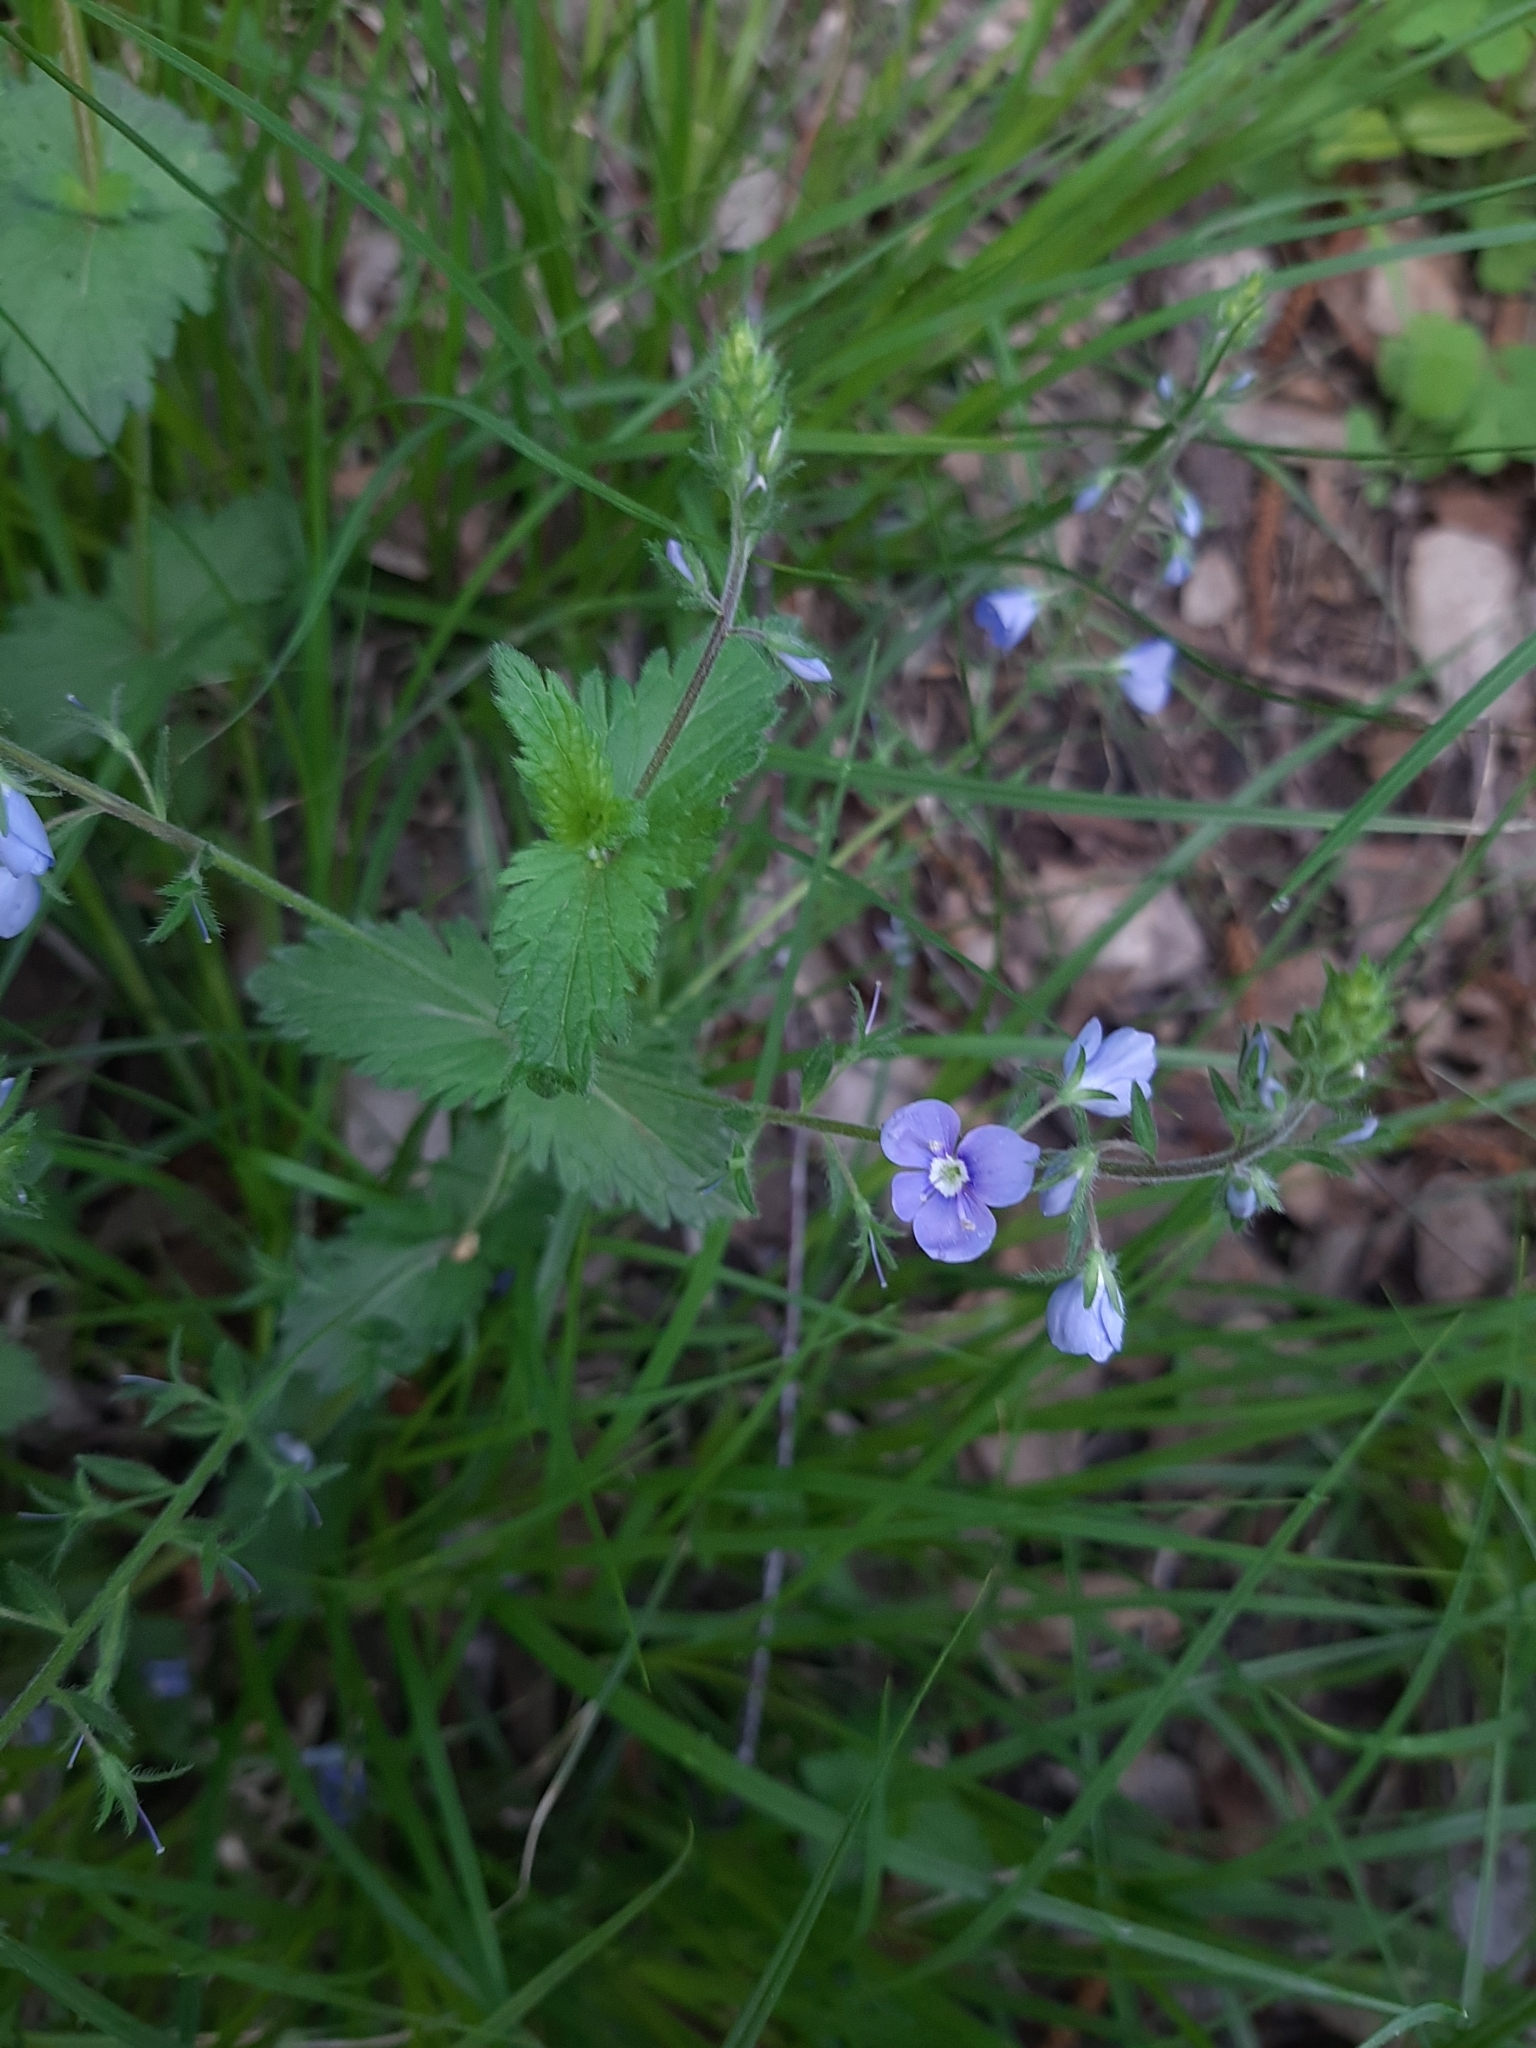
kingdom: Plantae
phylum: Tracheophyta
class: Magnoliopsida
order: Lamiales
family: Plantaginaceae
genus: Veronica
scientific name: Veronica chamaedrys
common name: Germander speedwell
